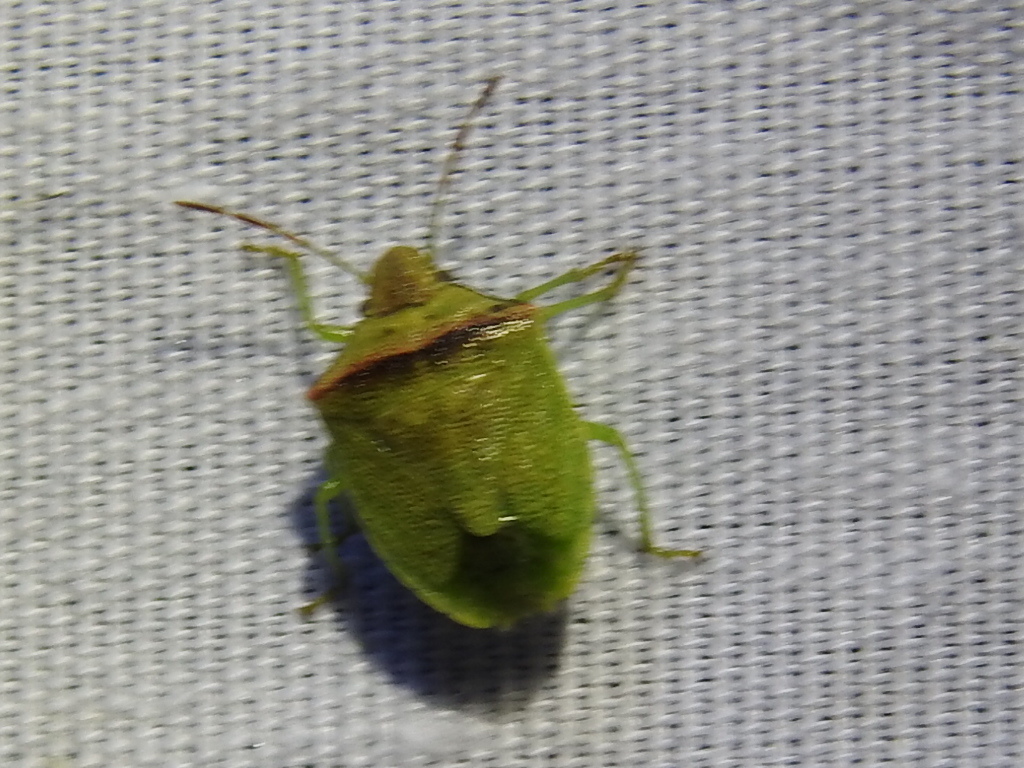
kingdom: Animalia
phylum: Arthropoda
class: Insecta
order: Hemiptera
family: Pentatomidae
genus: Thyanta
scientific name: Thyanta calceata
